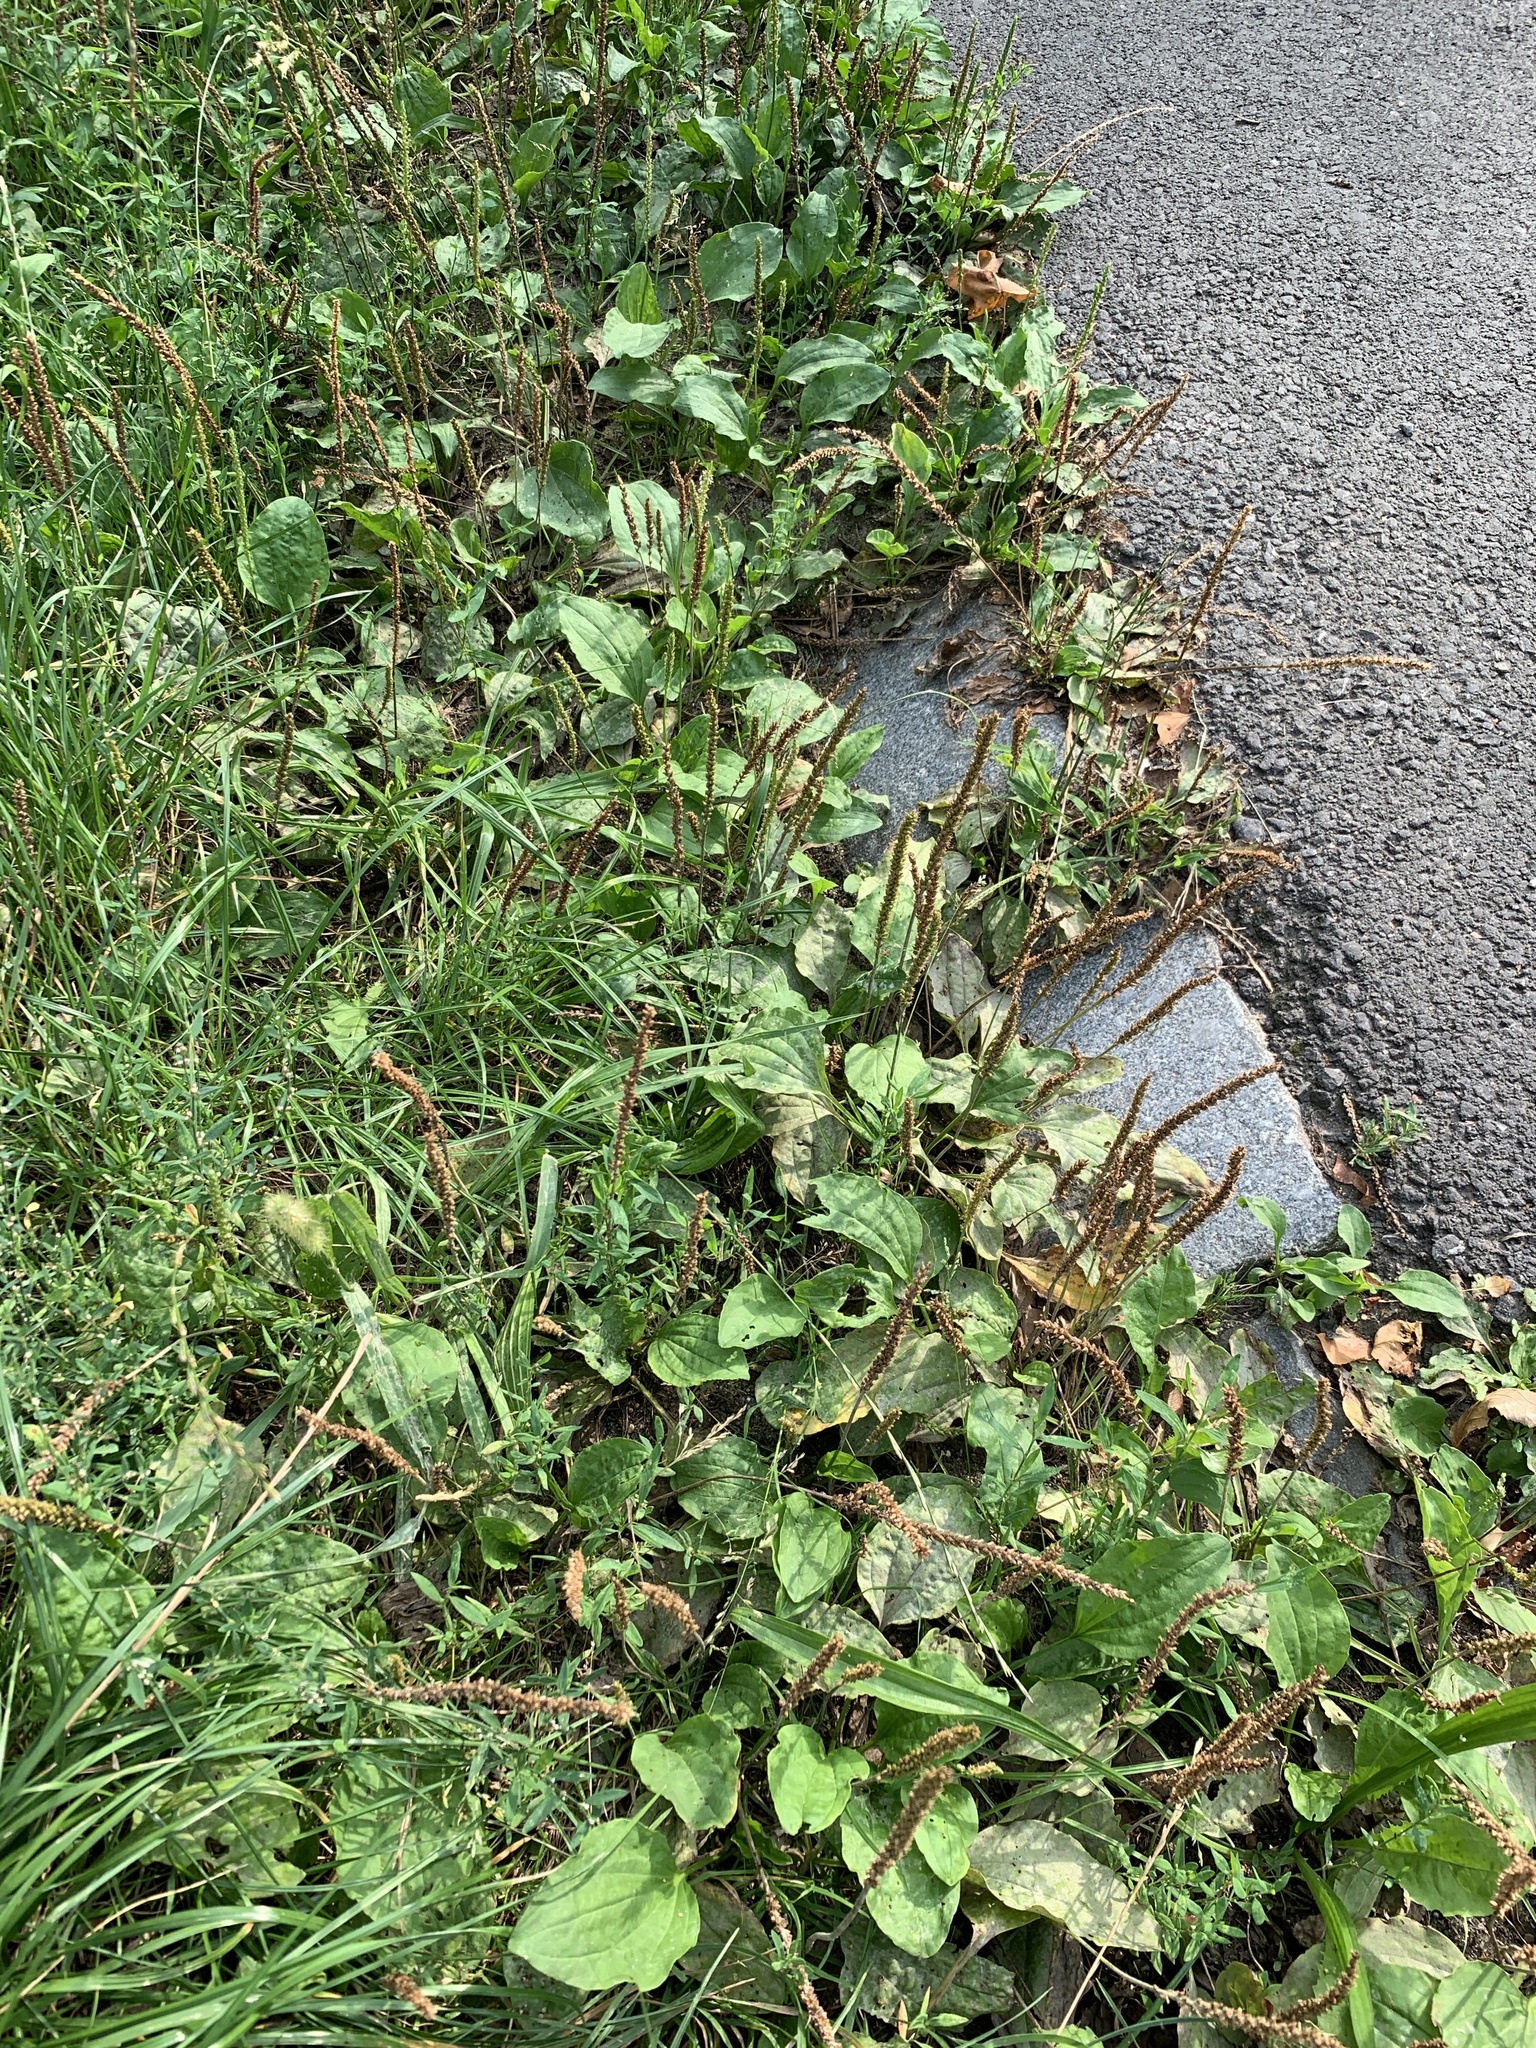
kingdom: Plantae
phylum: Tracheophyta
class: Magnoliopsida
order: Lamiales
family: Plantaginaceae
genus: Plantago
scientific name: Plantago major
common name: Common plantain
